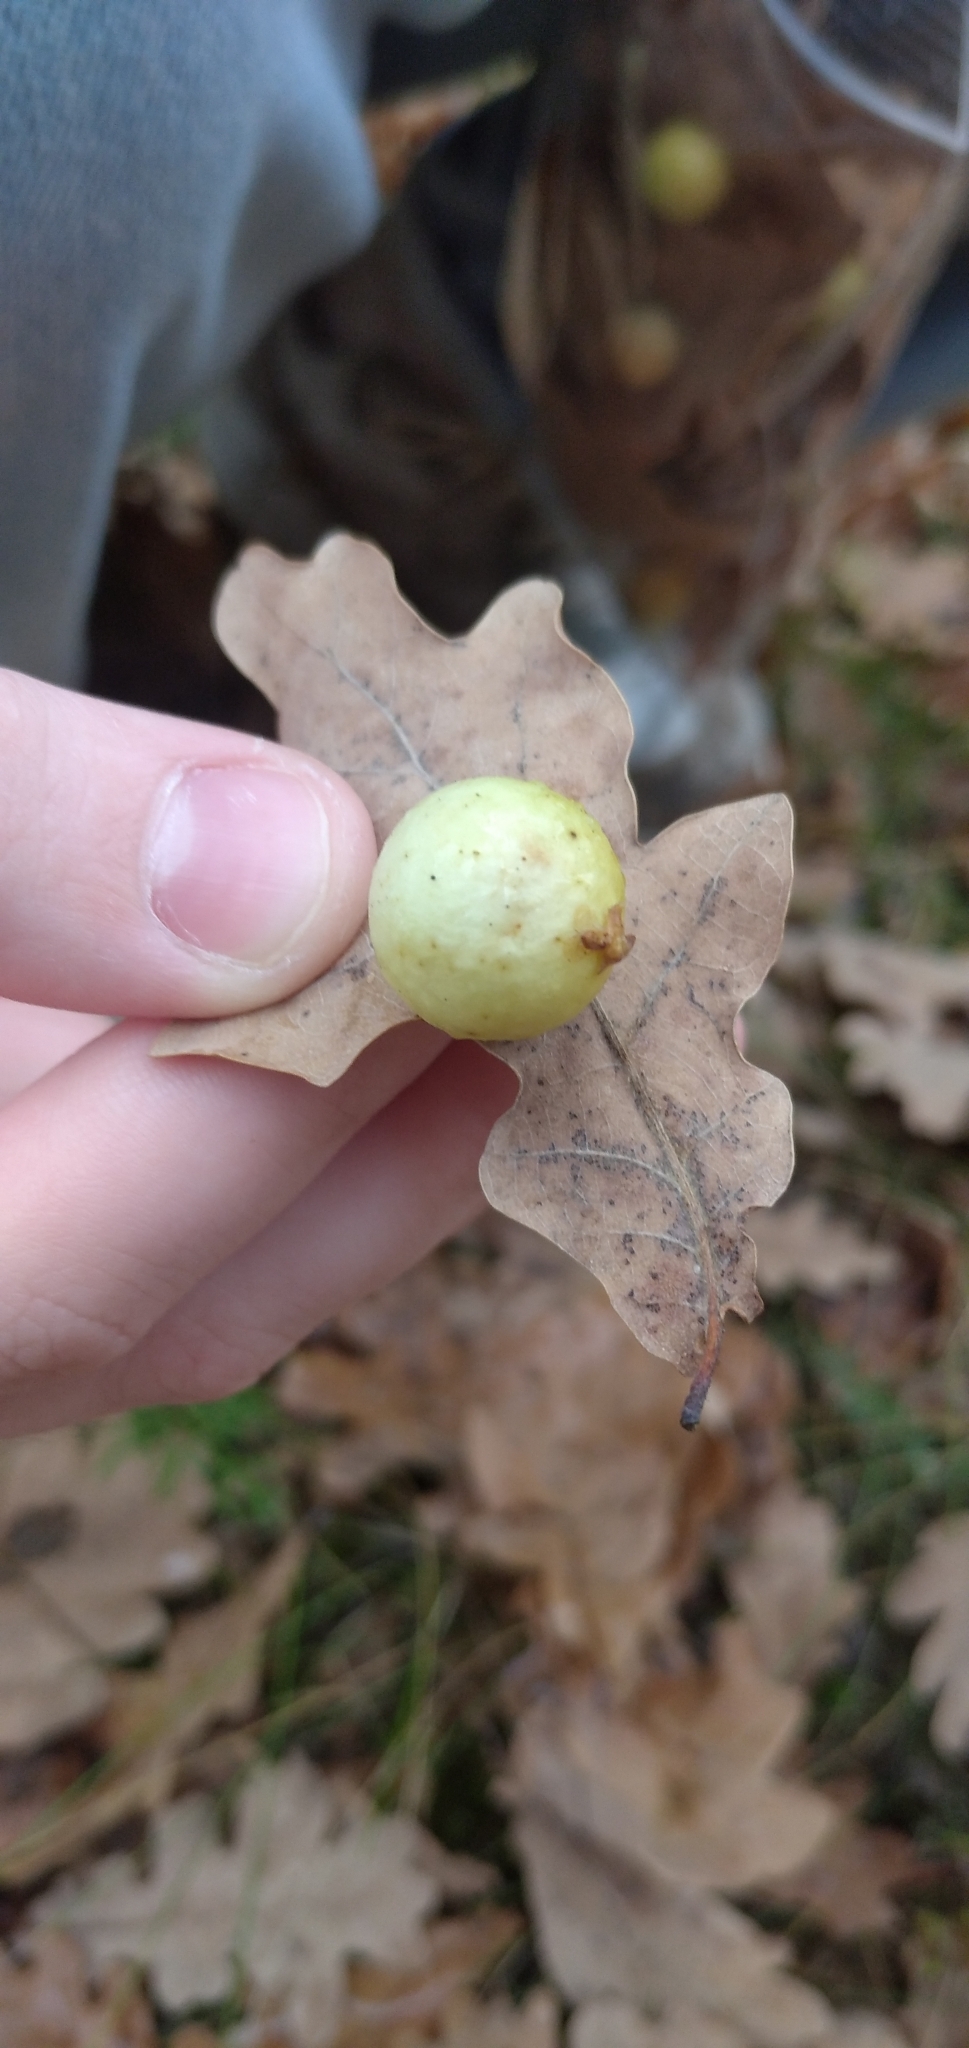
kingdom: Animalia
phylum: Arthropoda
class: Insecta
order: Hymenoptera
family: Cynipidae
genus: Cynips
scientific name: Cynips quercusfolii
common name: Cherry gall
